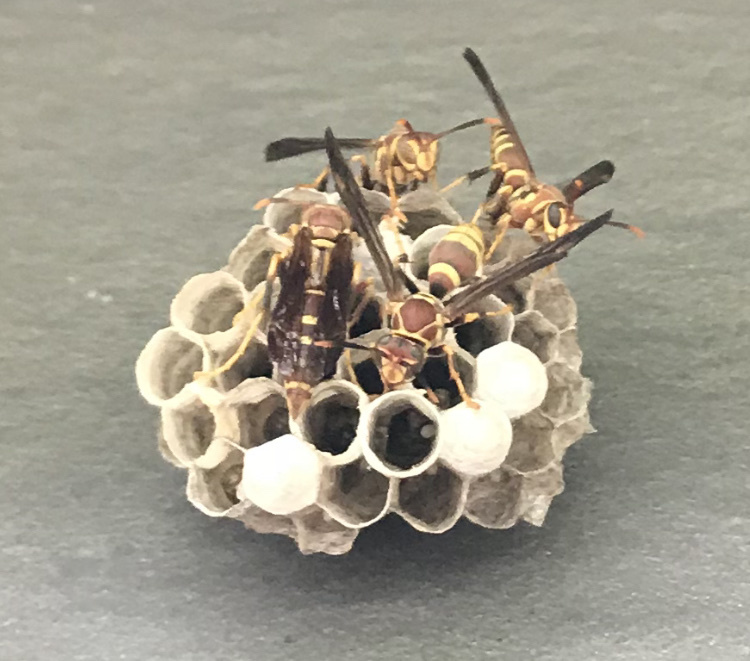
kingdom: Animalia
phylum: Arthropoda
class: Insecta
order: Hymenoptera
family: Eumenidae
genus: Polistes
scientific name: Polistes exclamans
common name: Paper wasp
